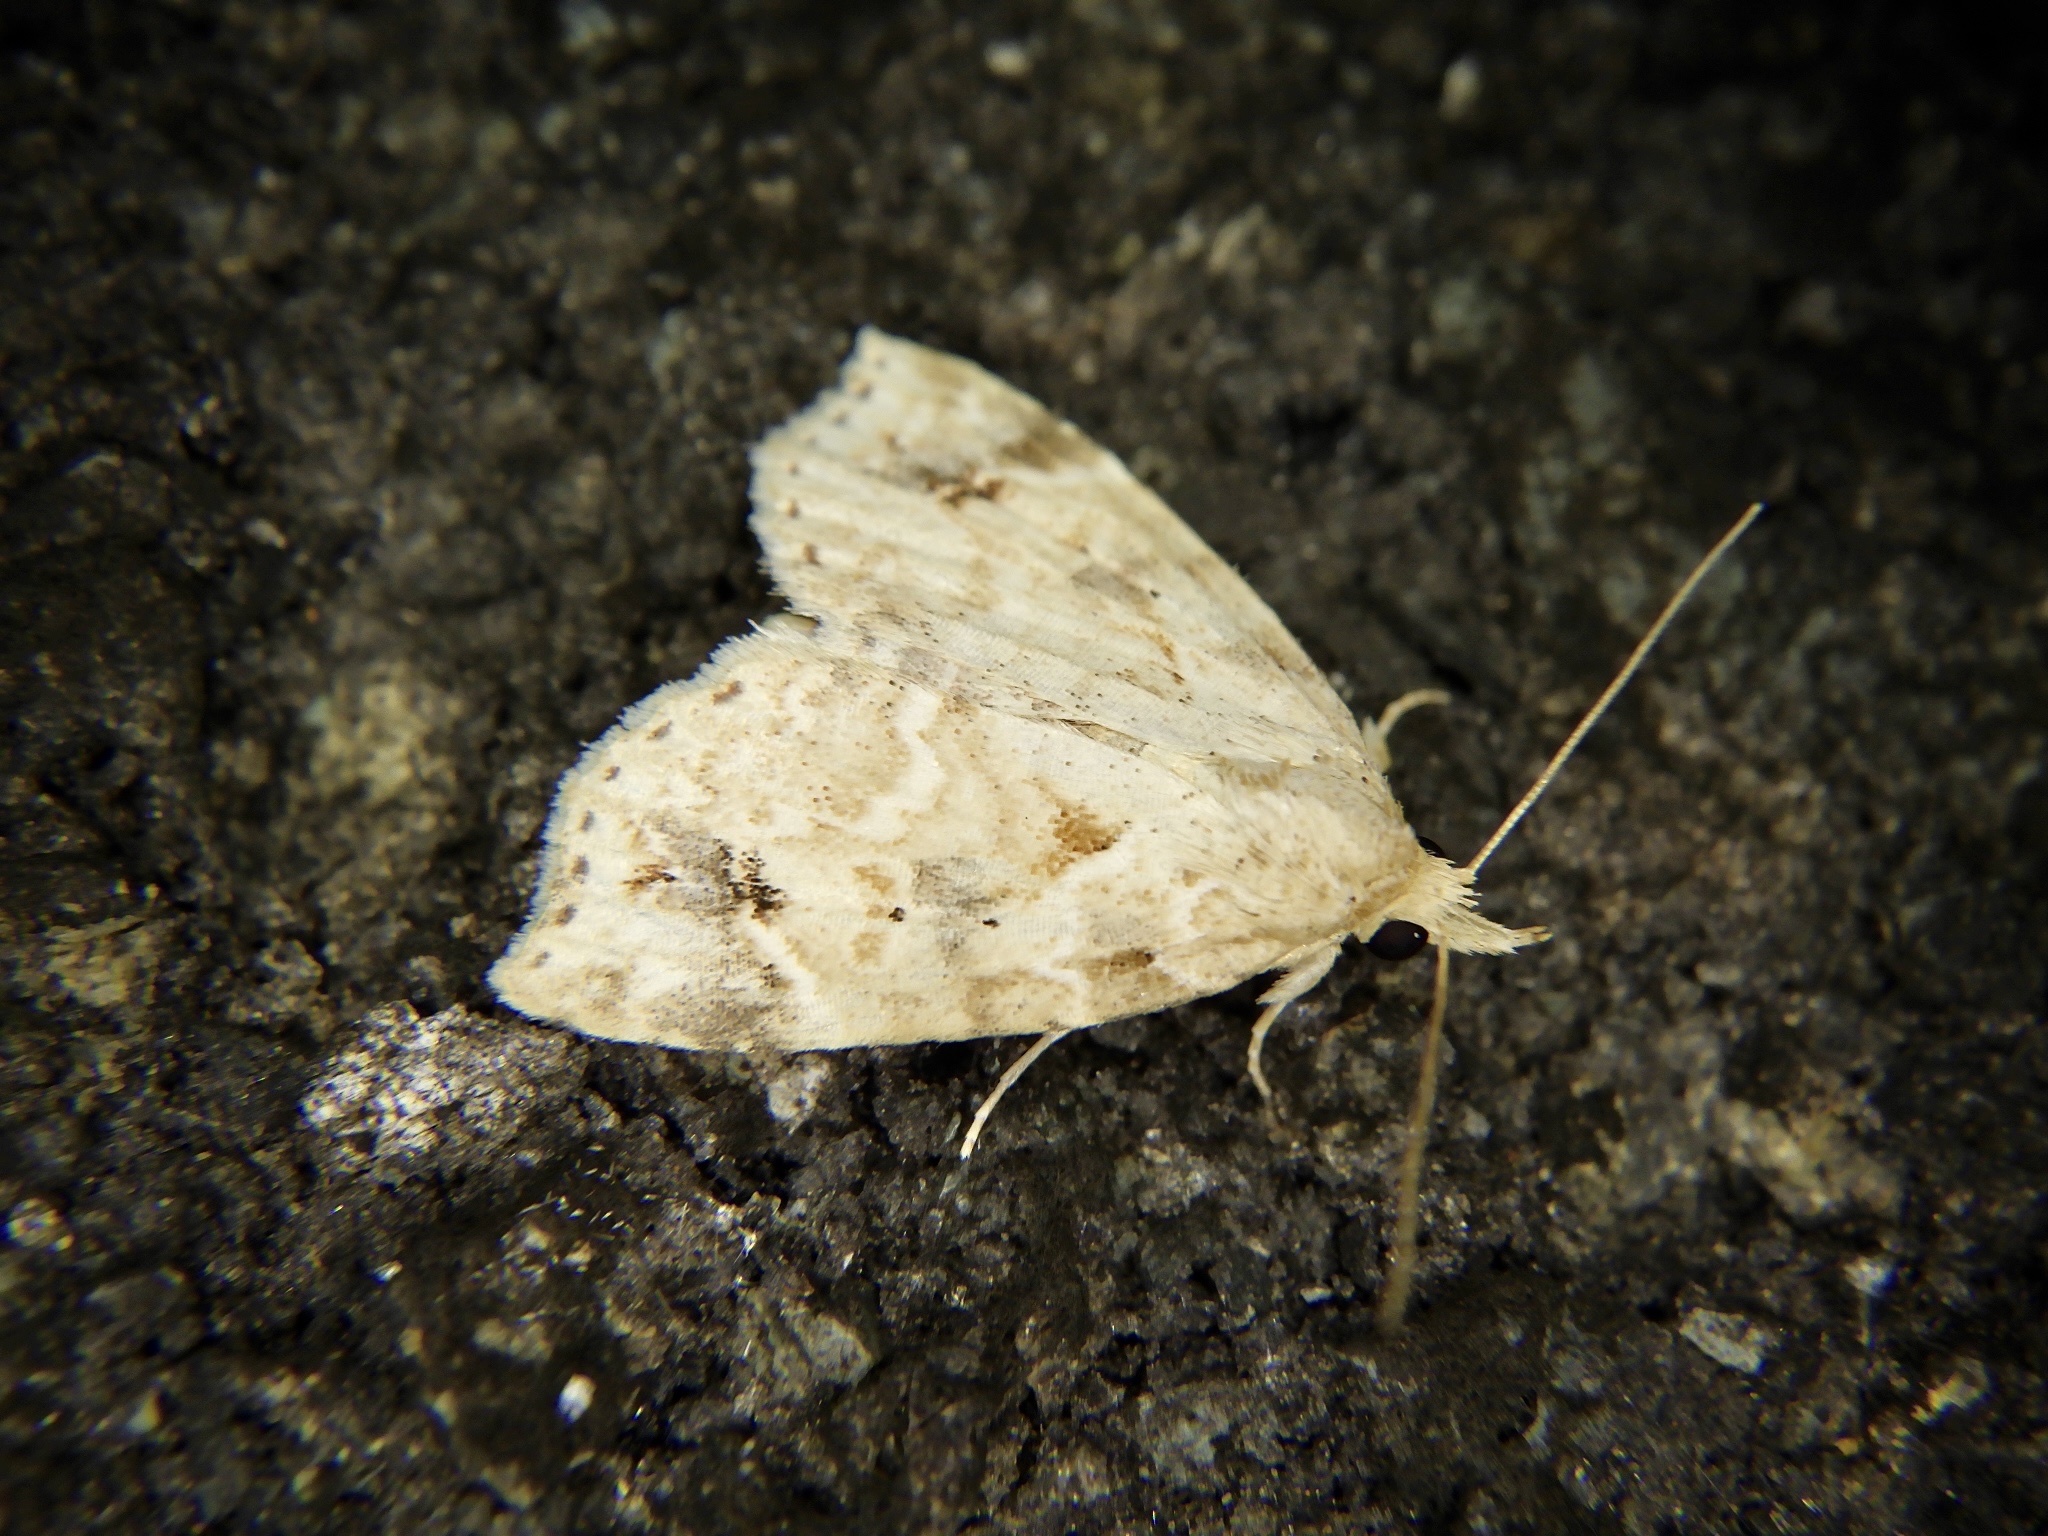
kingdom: Animalia
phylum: Arthropoda
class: Insecta
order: Lepidoptera
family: Erebidae
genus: Olulis
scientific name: Olulis
